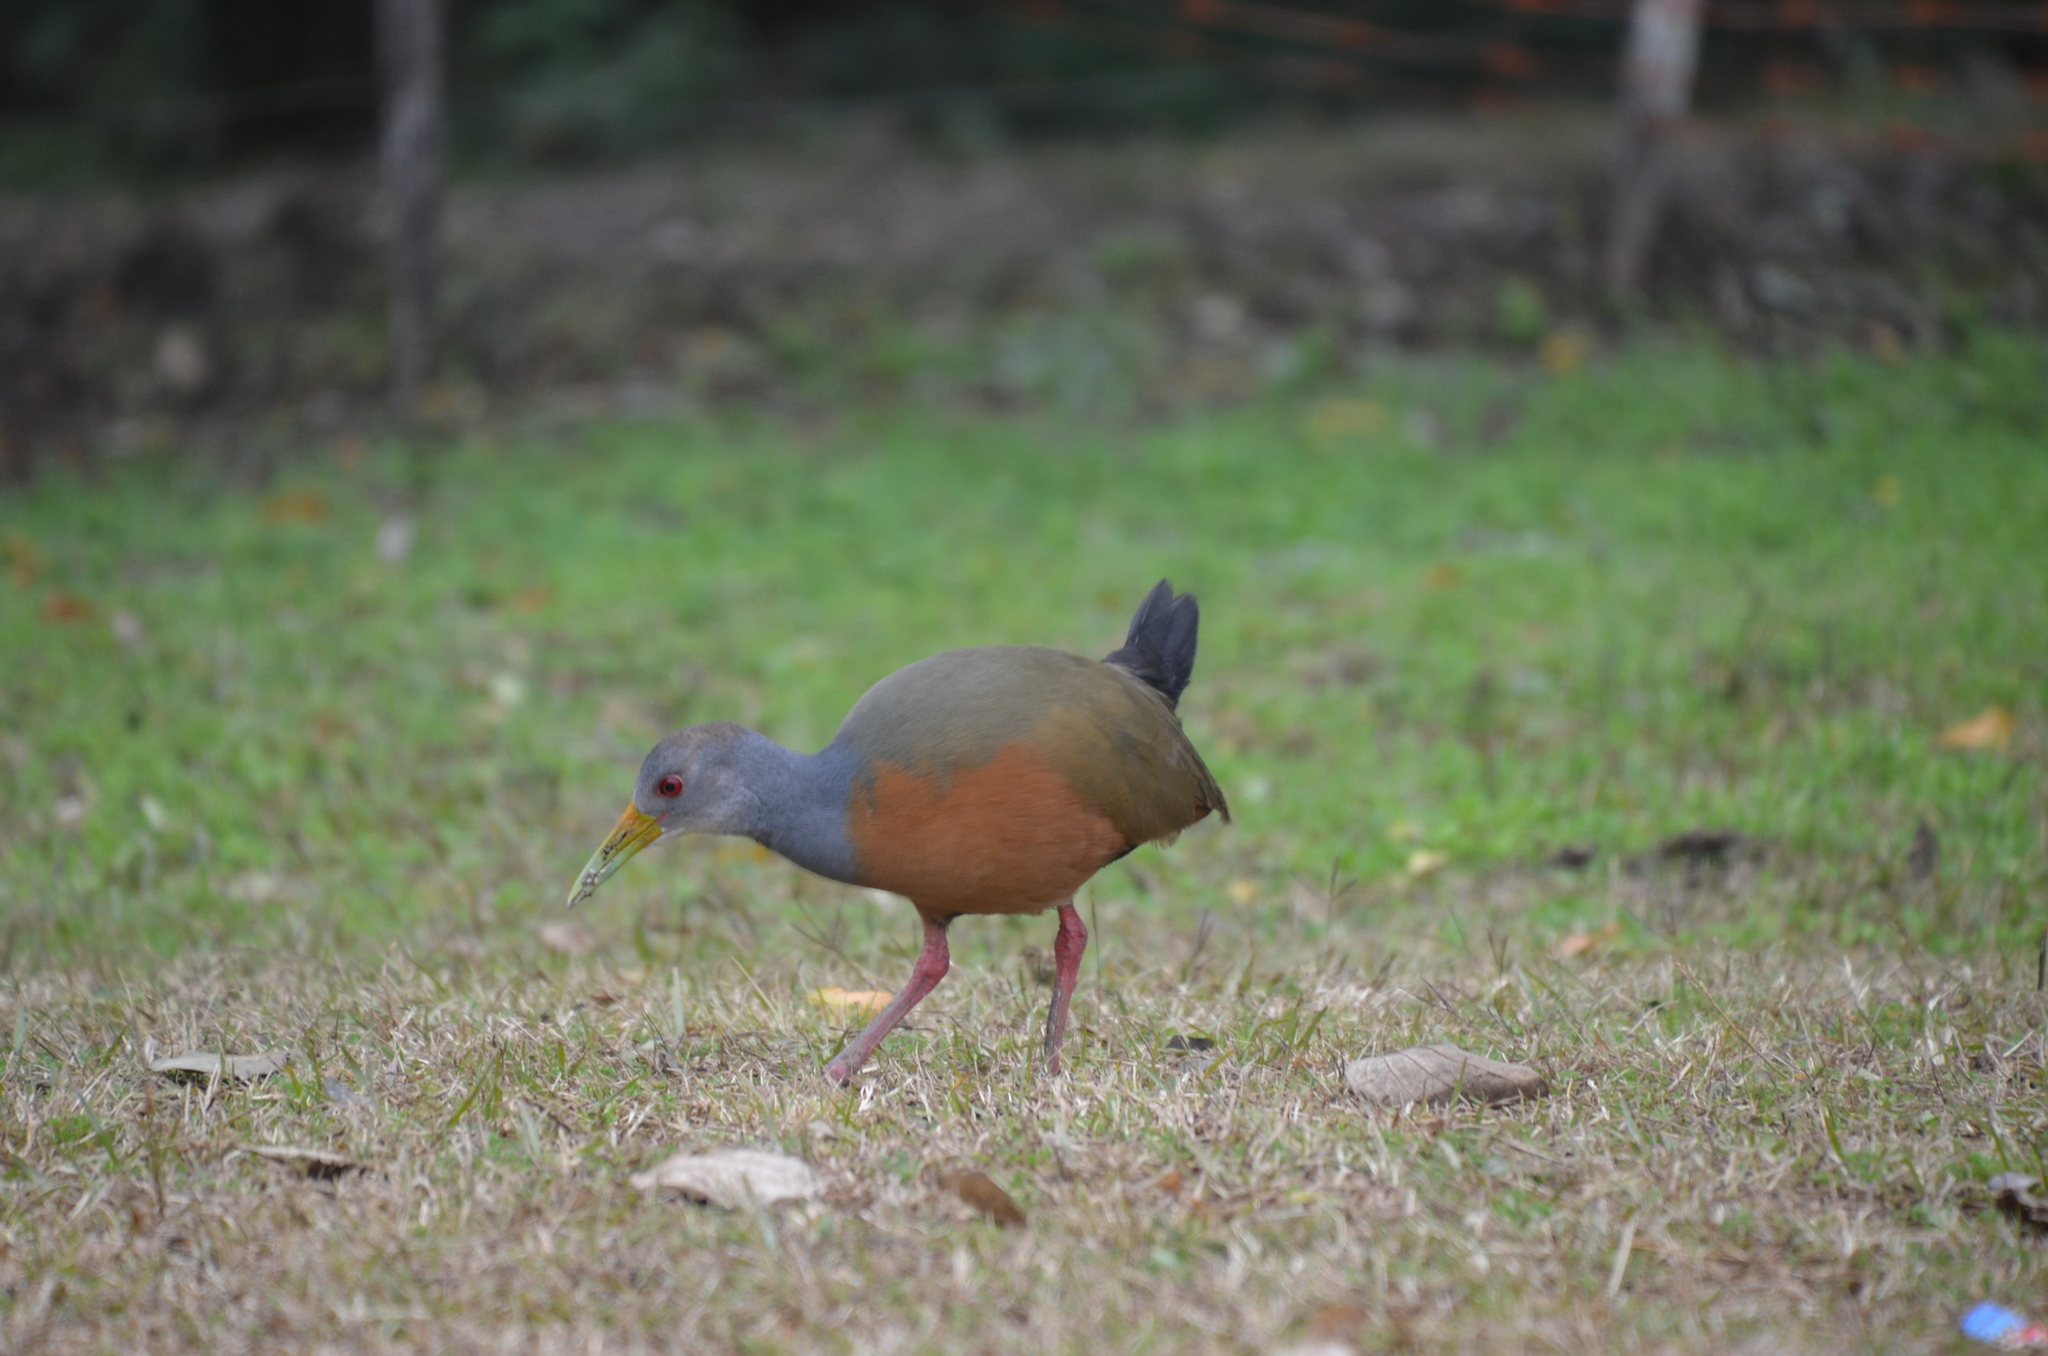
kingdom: Animalia
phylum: Chordata
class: Aves
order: Gruiformes
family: Rallidae
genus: Aramides
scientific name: Aramides cajanea
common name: Gray-necked wood-rail
